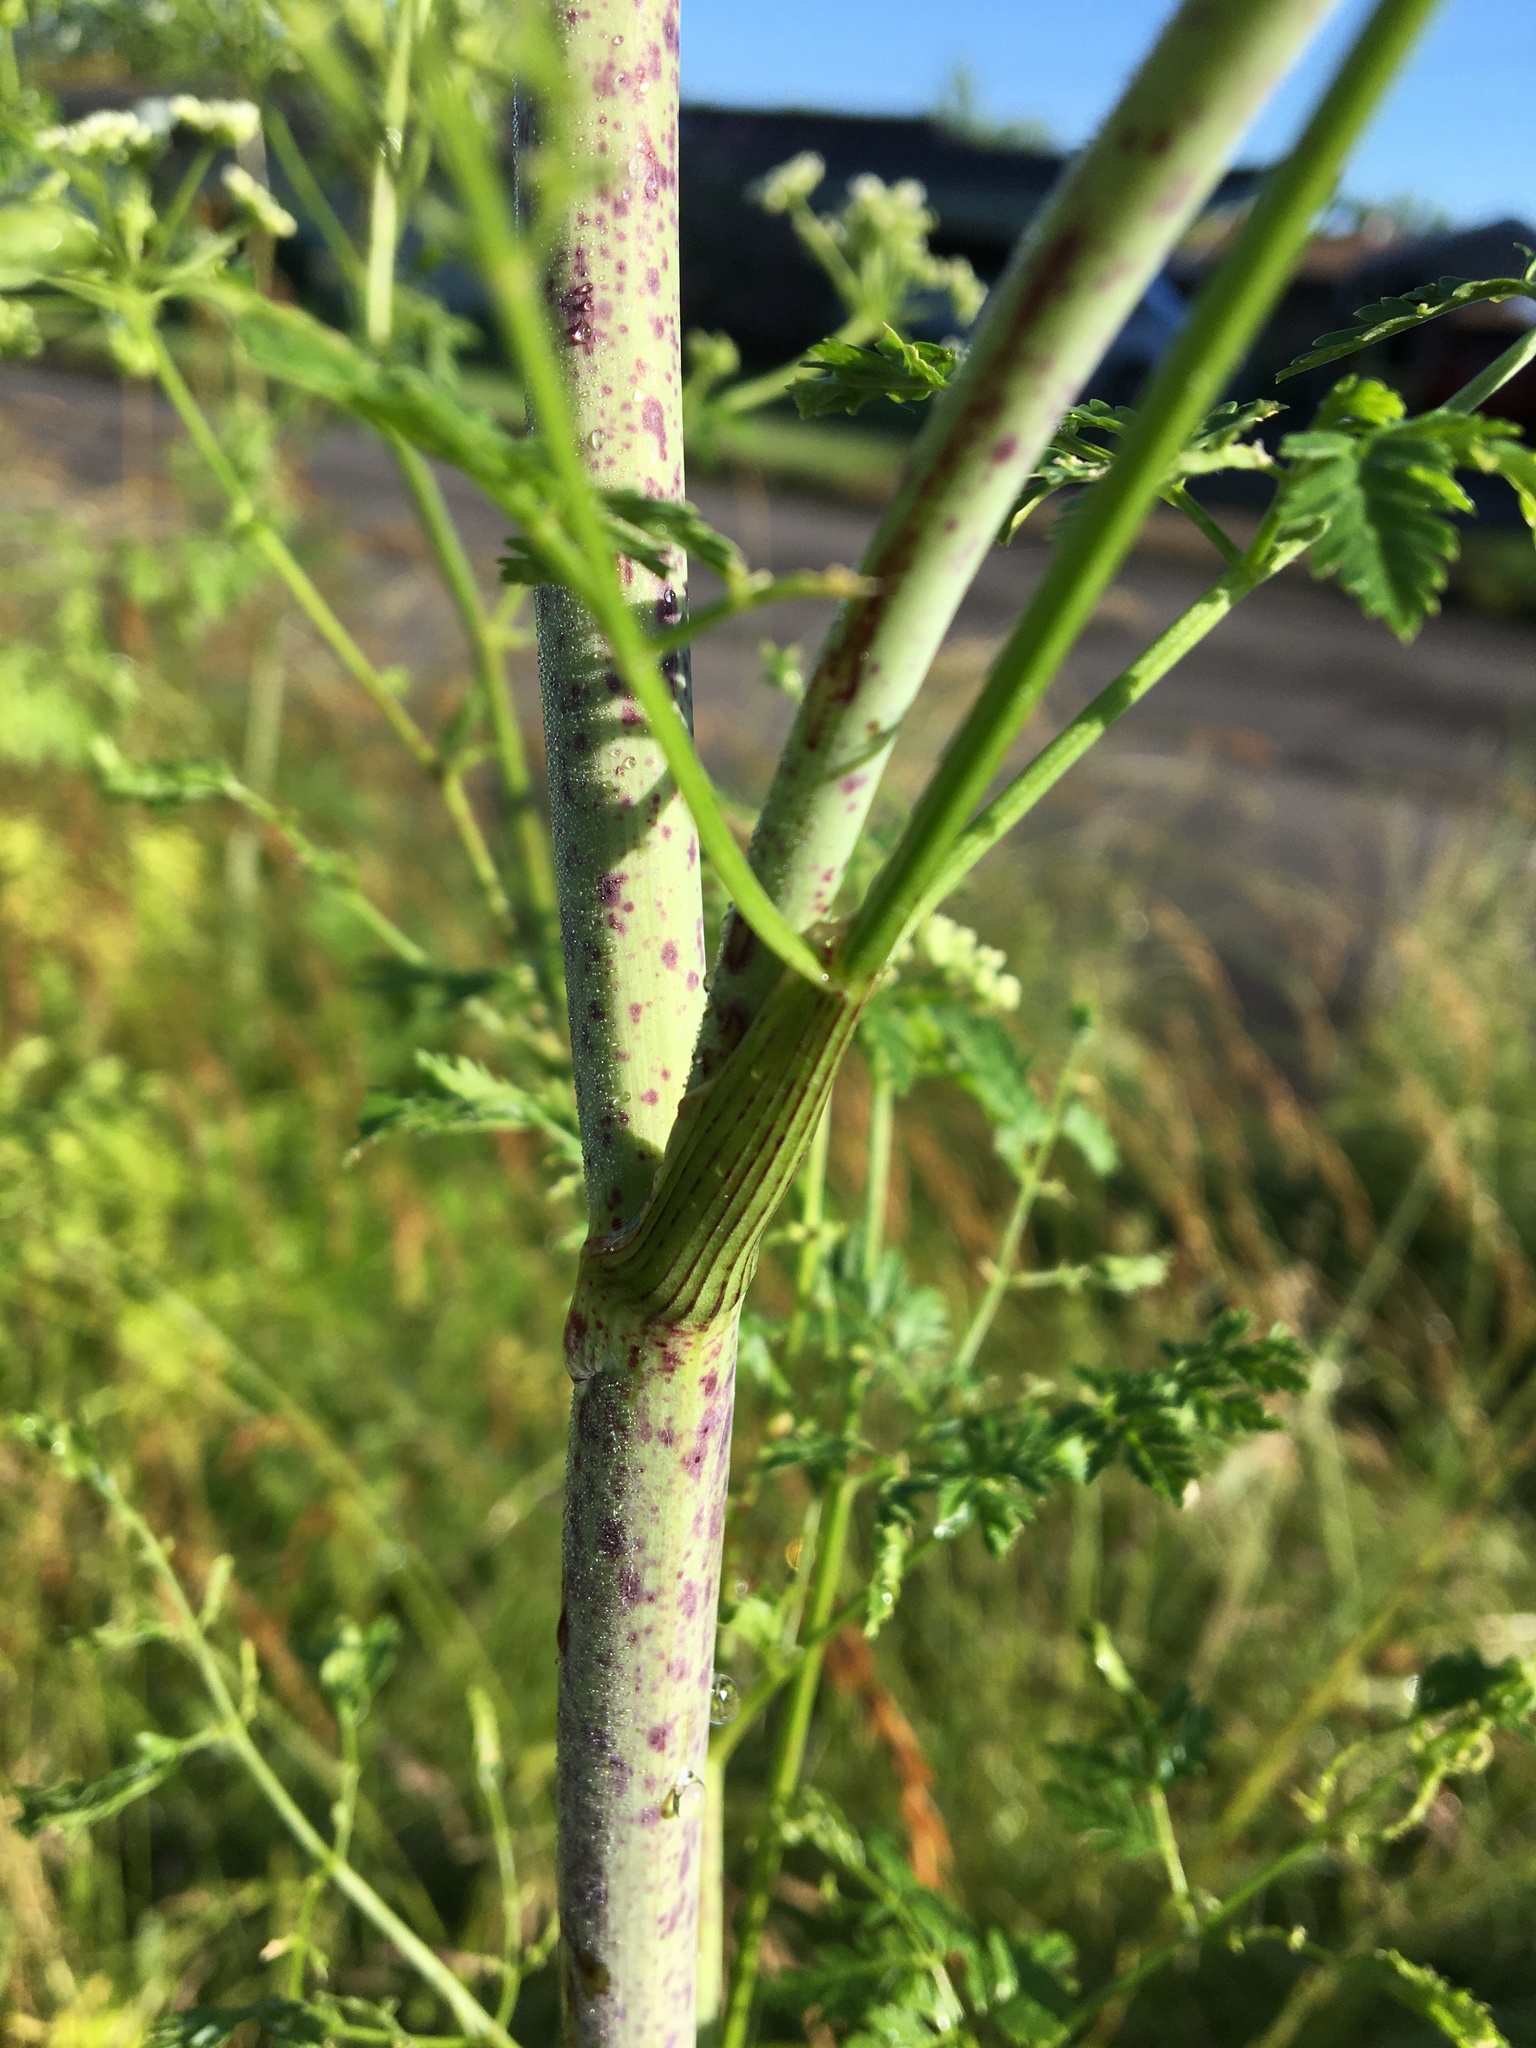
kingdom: Plantae
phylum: Tracheophyta
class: Magnoliopsida
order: Apiales
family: Apiaceae
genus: Conium
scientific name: Conium maculatum
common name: Hemlock
